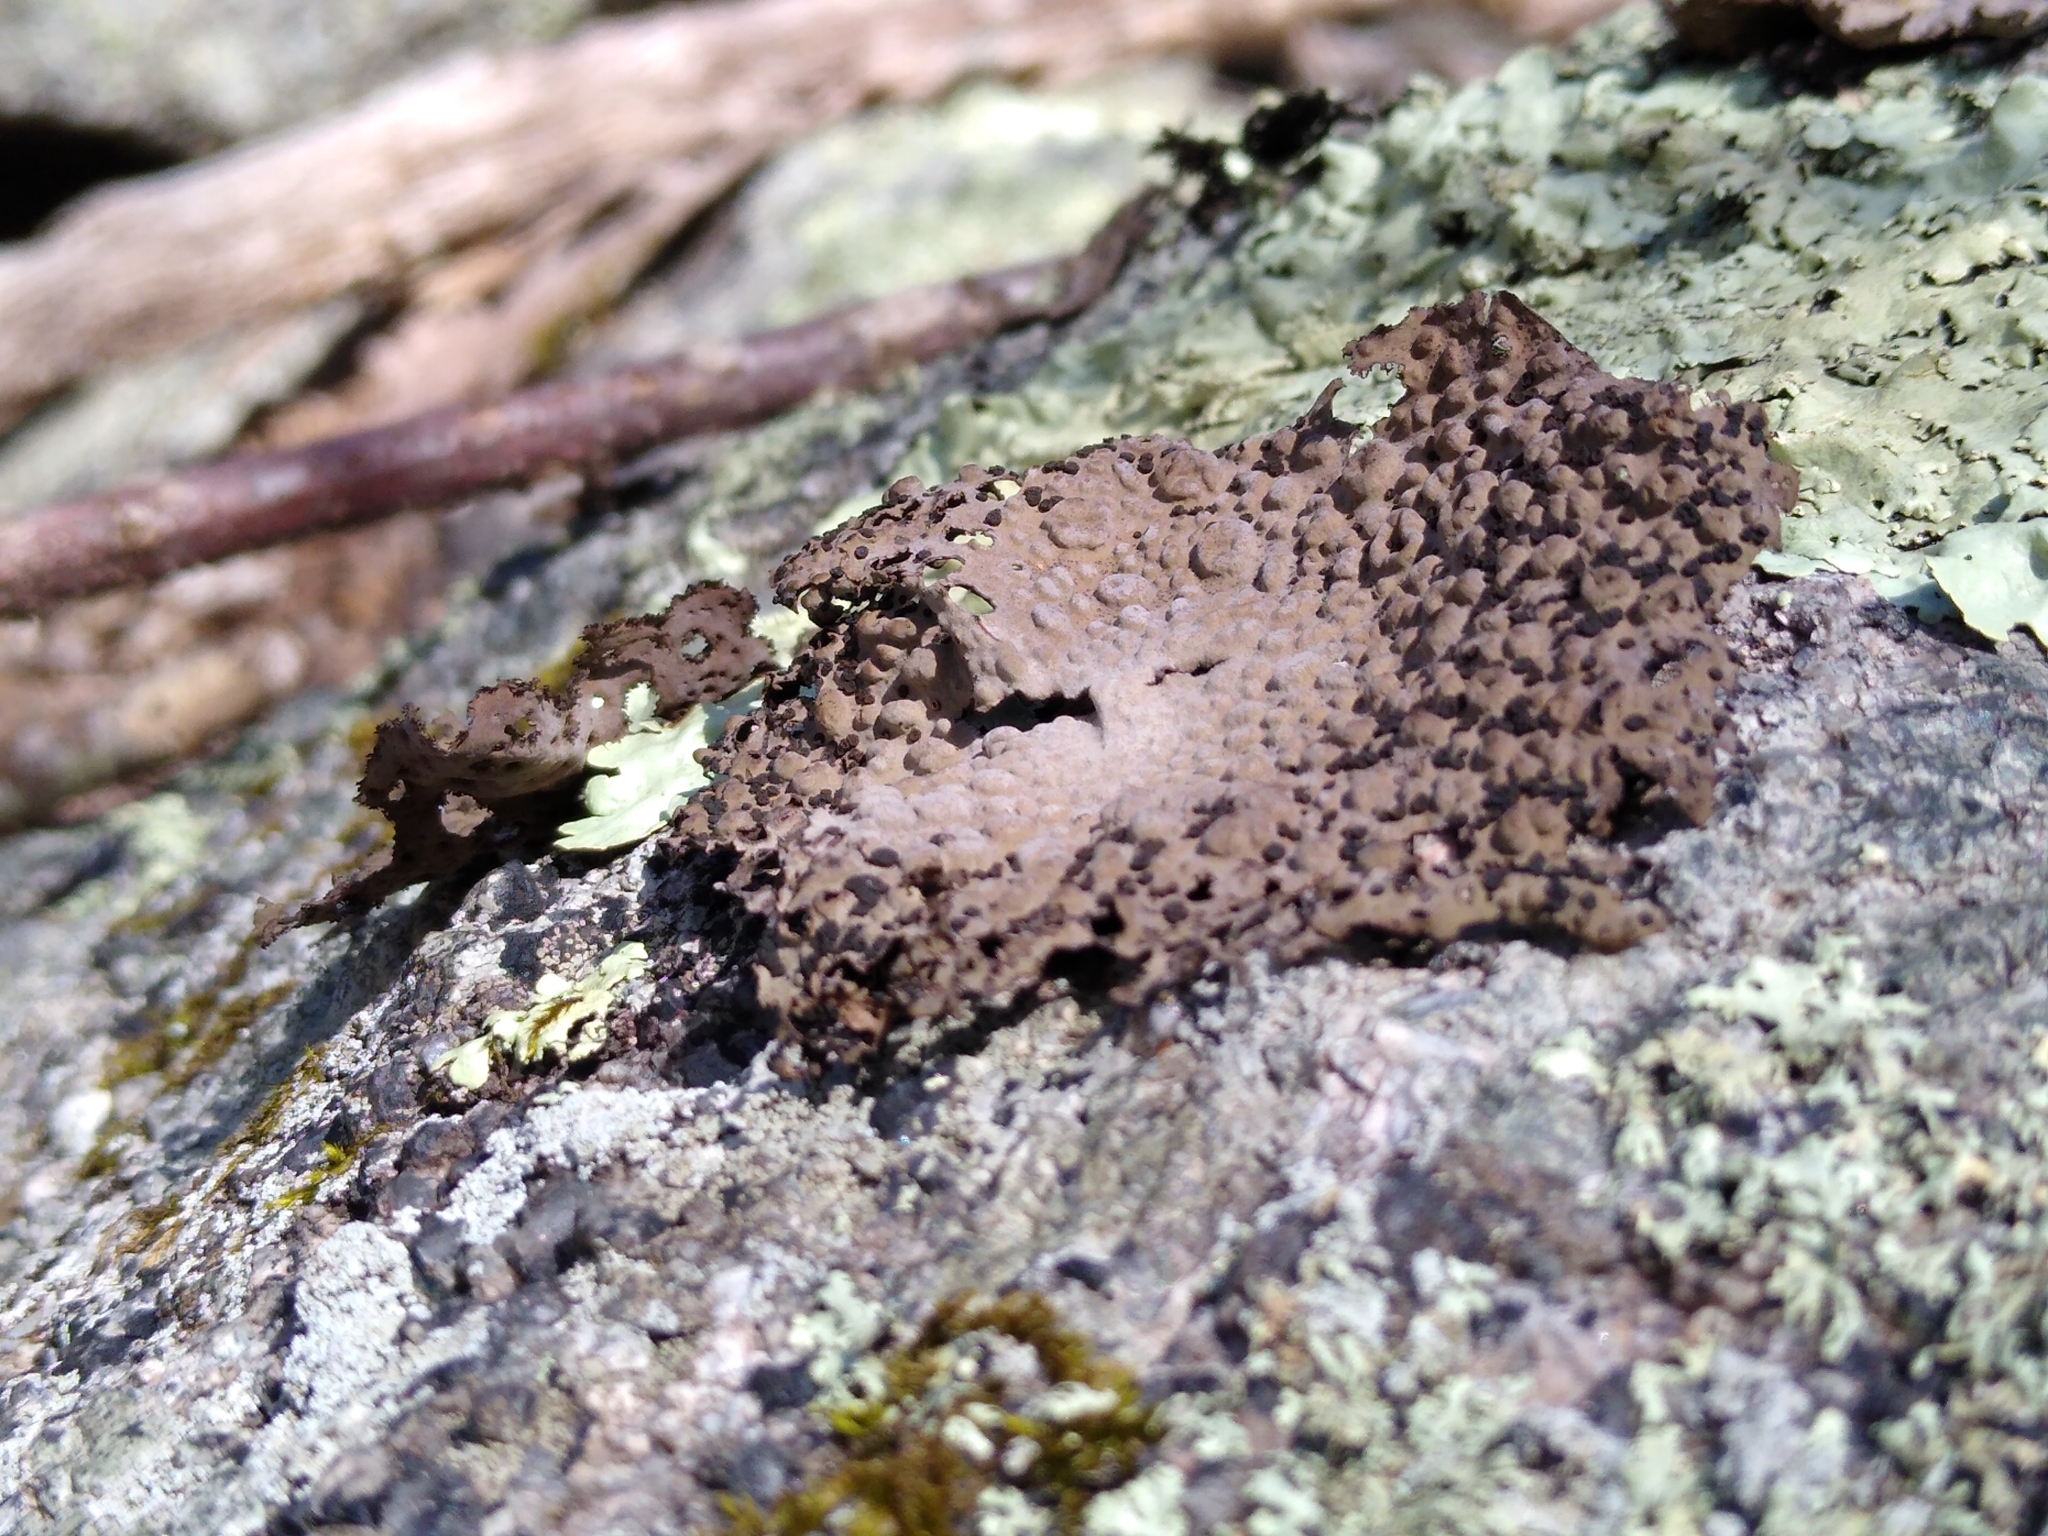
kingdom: Fungi
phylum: Ascomycota
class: Lecanoromycetes
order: Umbilicariales
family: Umbilicariaceae
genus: Lasallia
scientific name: Lasallia papulosa
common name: Common toadskin lichen
